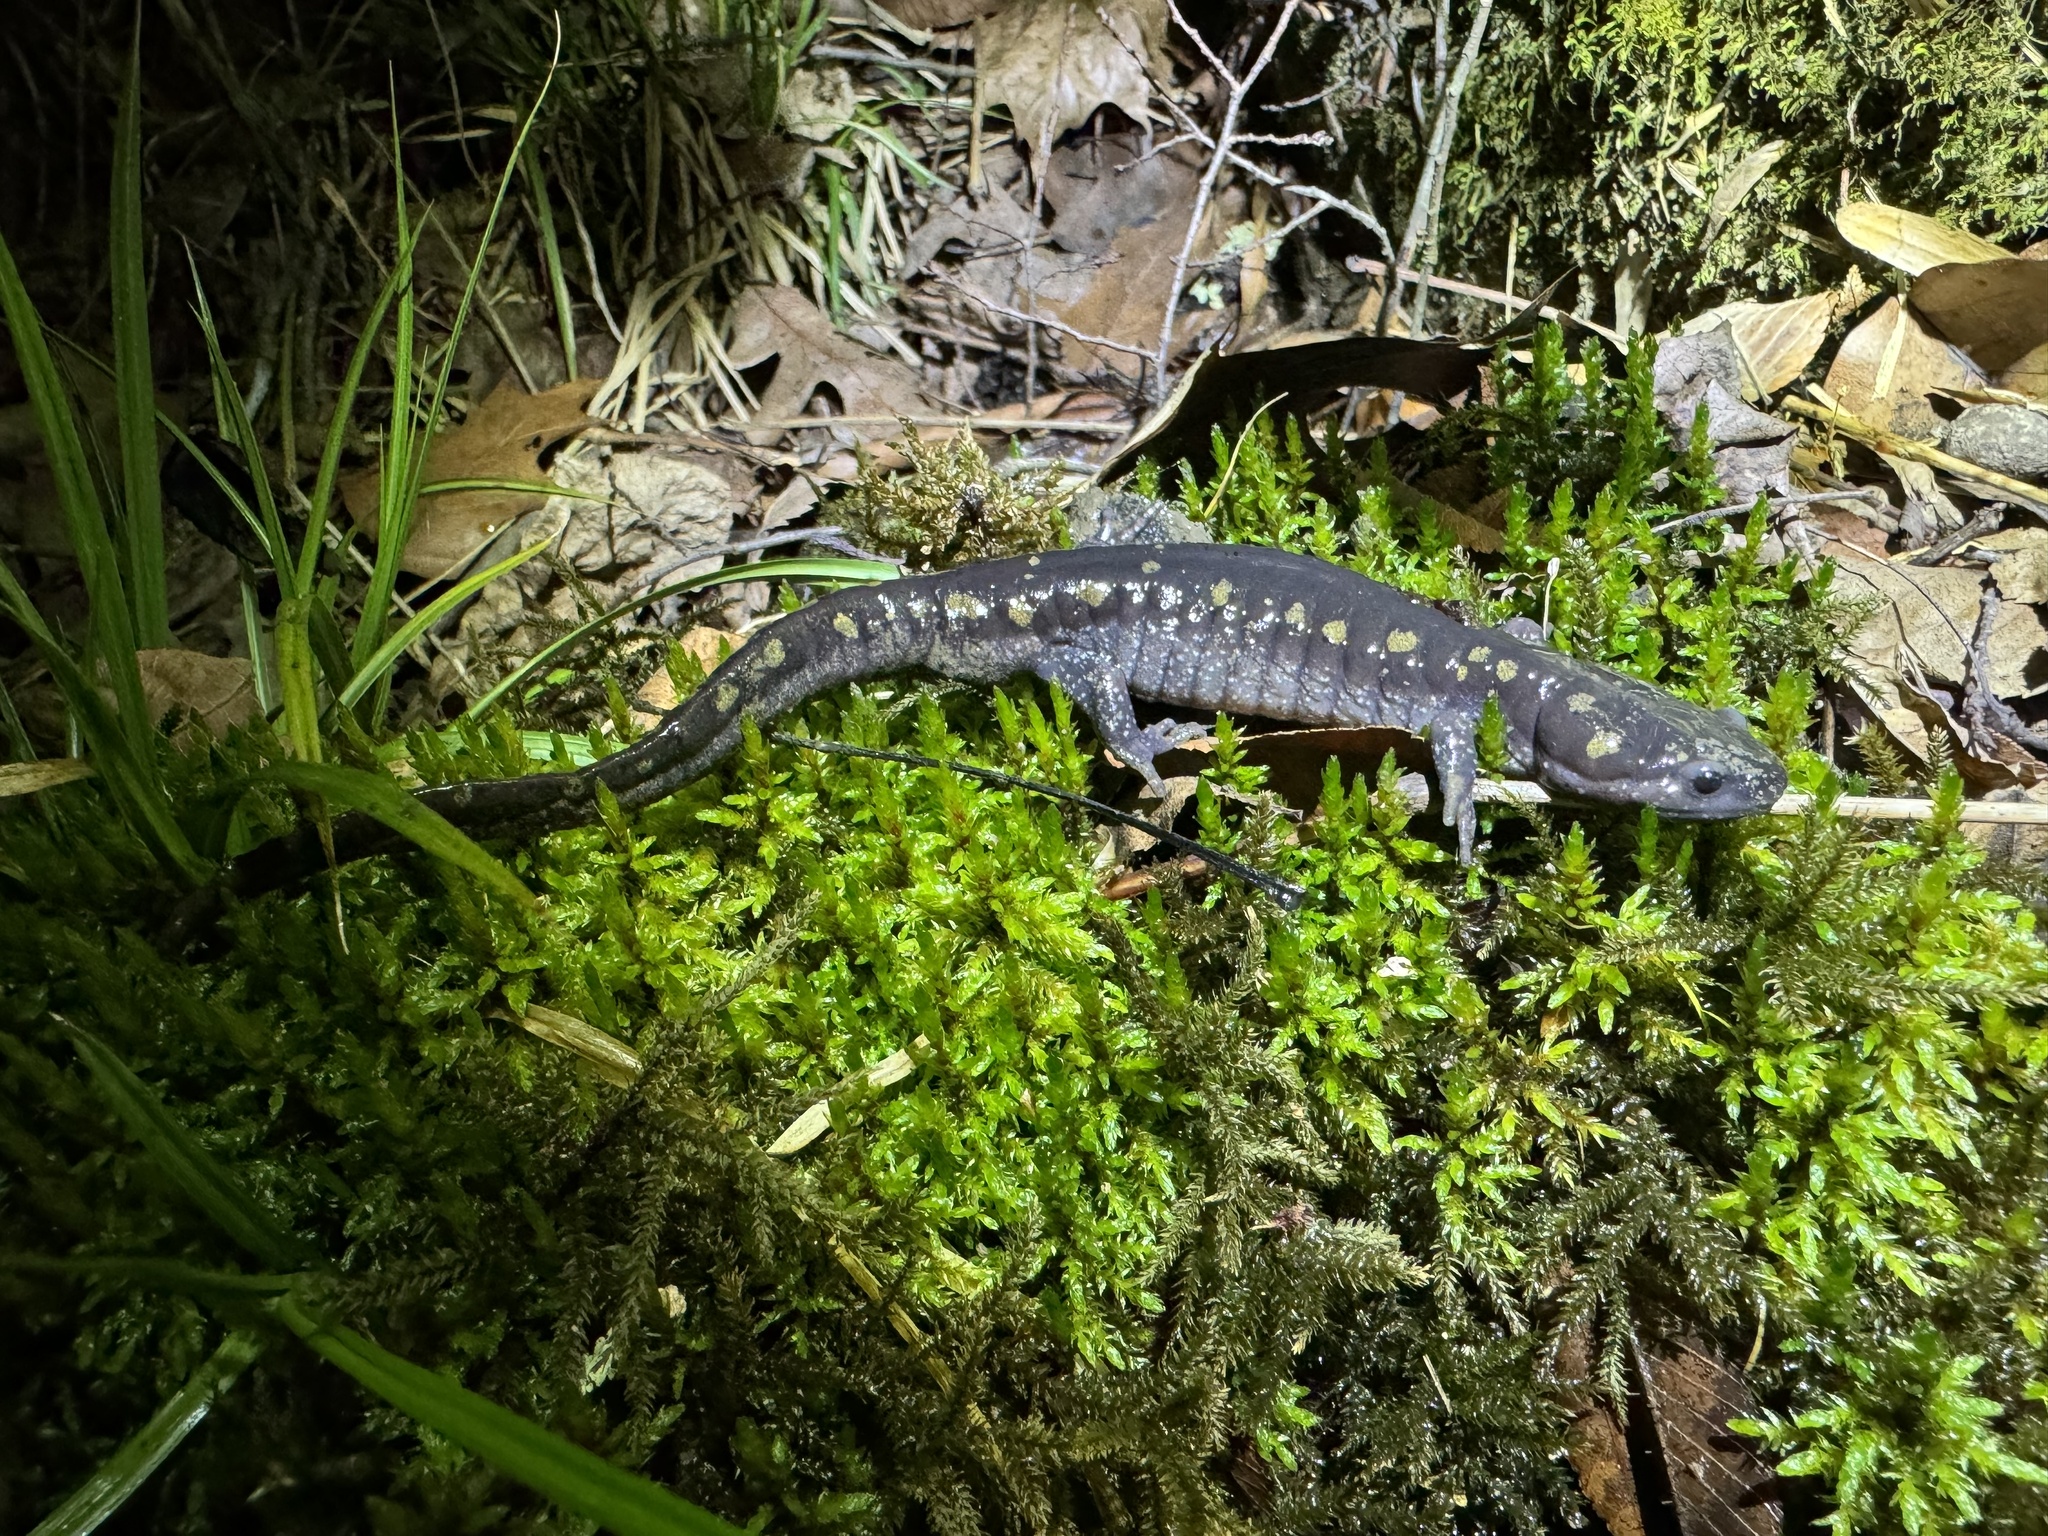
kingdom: Animalia
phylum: Chordata
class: Amphibia
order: Caudata
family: Ambystomatidae
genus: Ambystoma
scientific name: Ambystoma maculatum
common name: Spotted salamander
